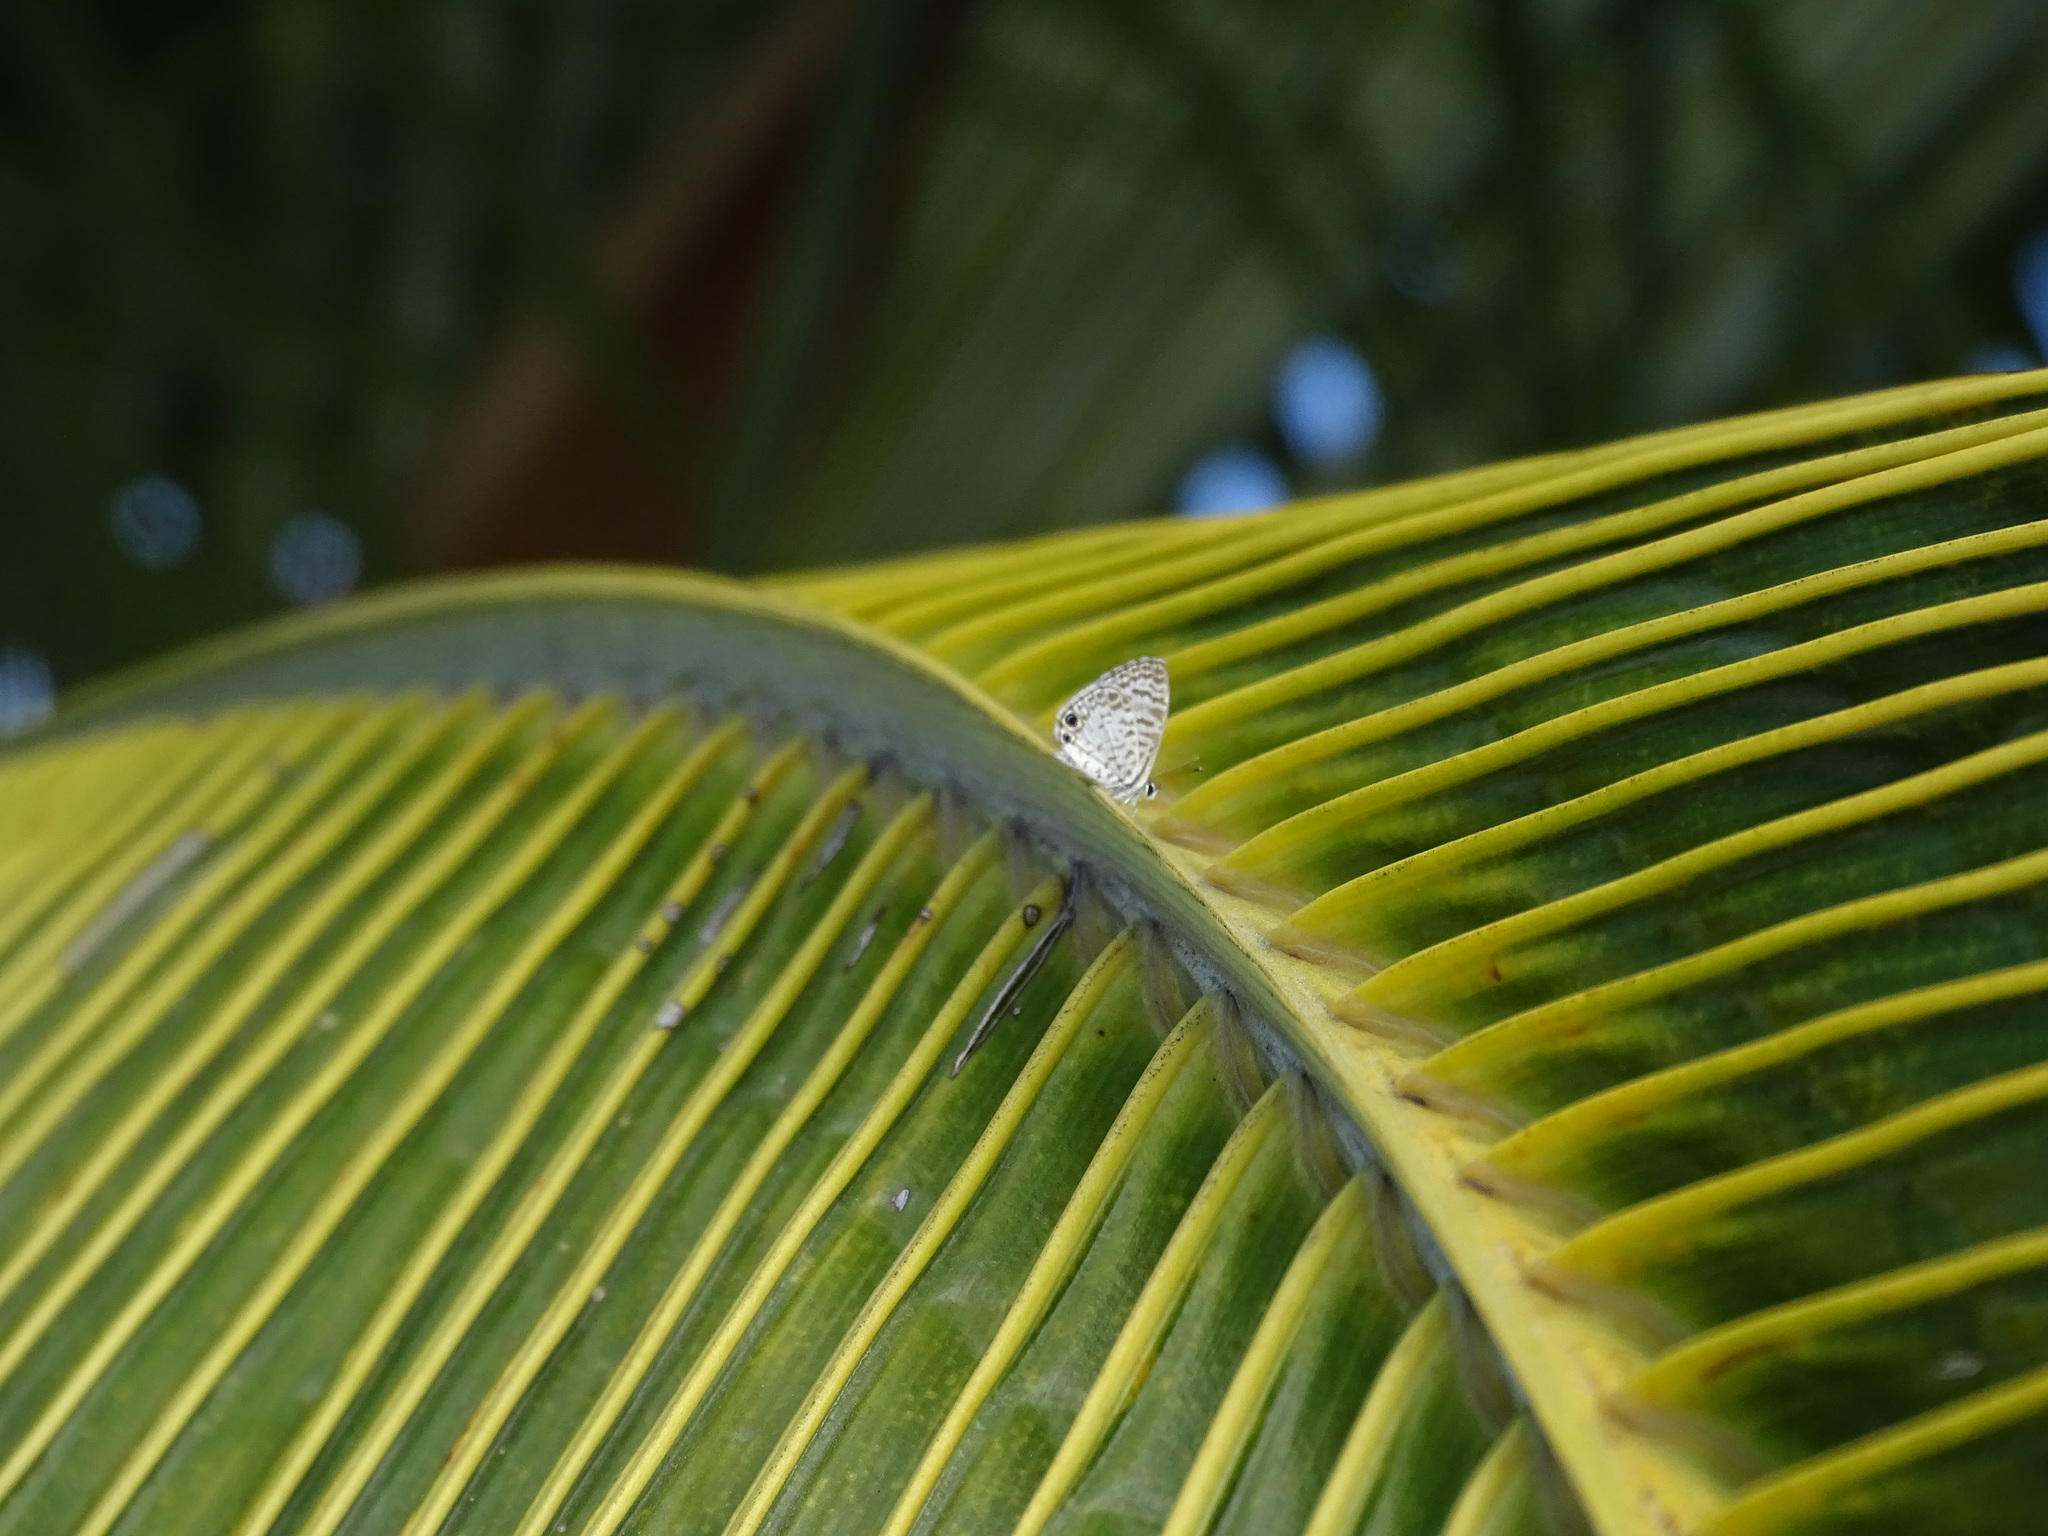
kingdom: Animalia
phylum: Arthropoda
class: Insecta
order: Lepidoptera
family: Lycaenidae
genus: Leptotes
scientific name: Leptotes cassius
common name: Cassius blue
